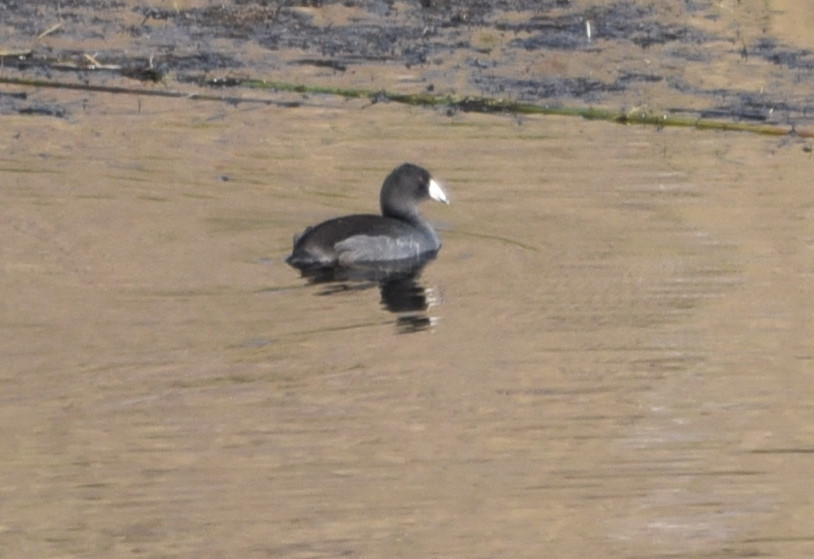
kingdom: Animalia
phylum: Chordata
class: Aves
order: Gruiformes
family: Rallidae
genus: Fulica
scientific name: Fulica americana
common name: American coot
